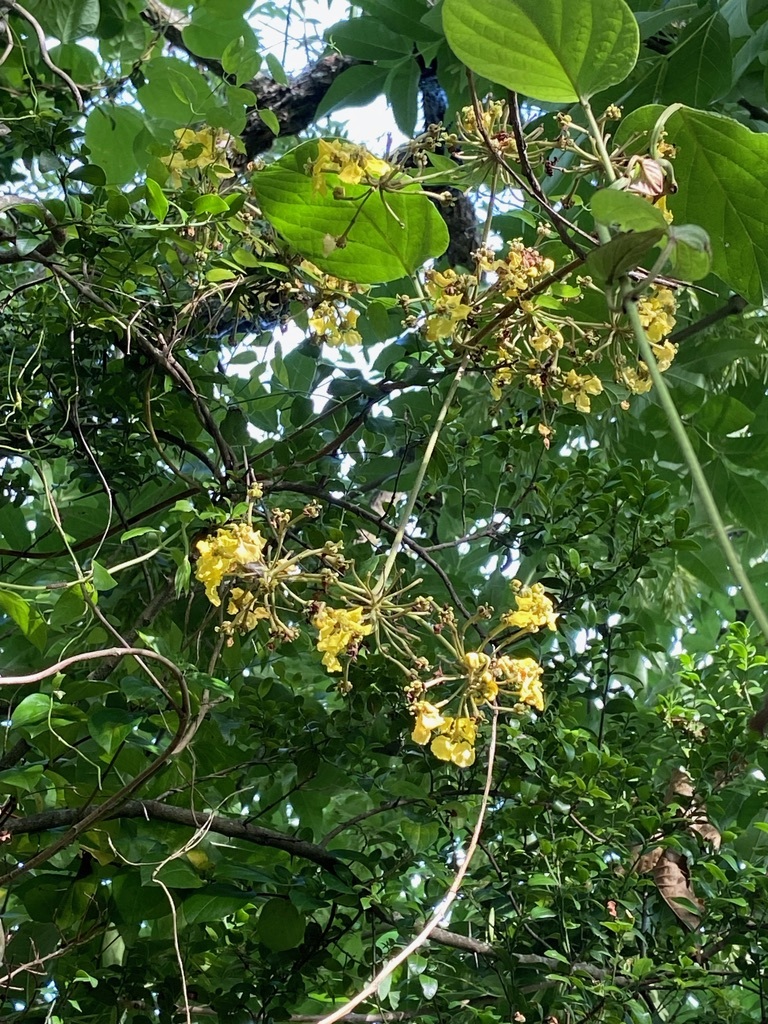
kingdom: Plantae
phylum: Tracheophyta
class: Magnoliopsida
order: Malpighiales
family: Malpighiaceae
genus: Stigmaphyllon
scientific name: Stigmaphyllon bonariense
